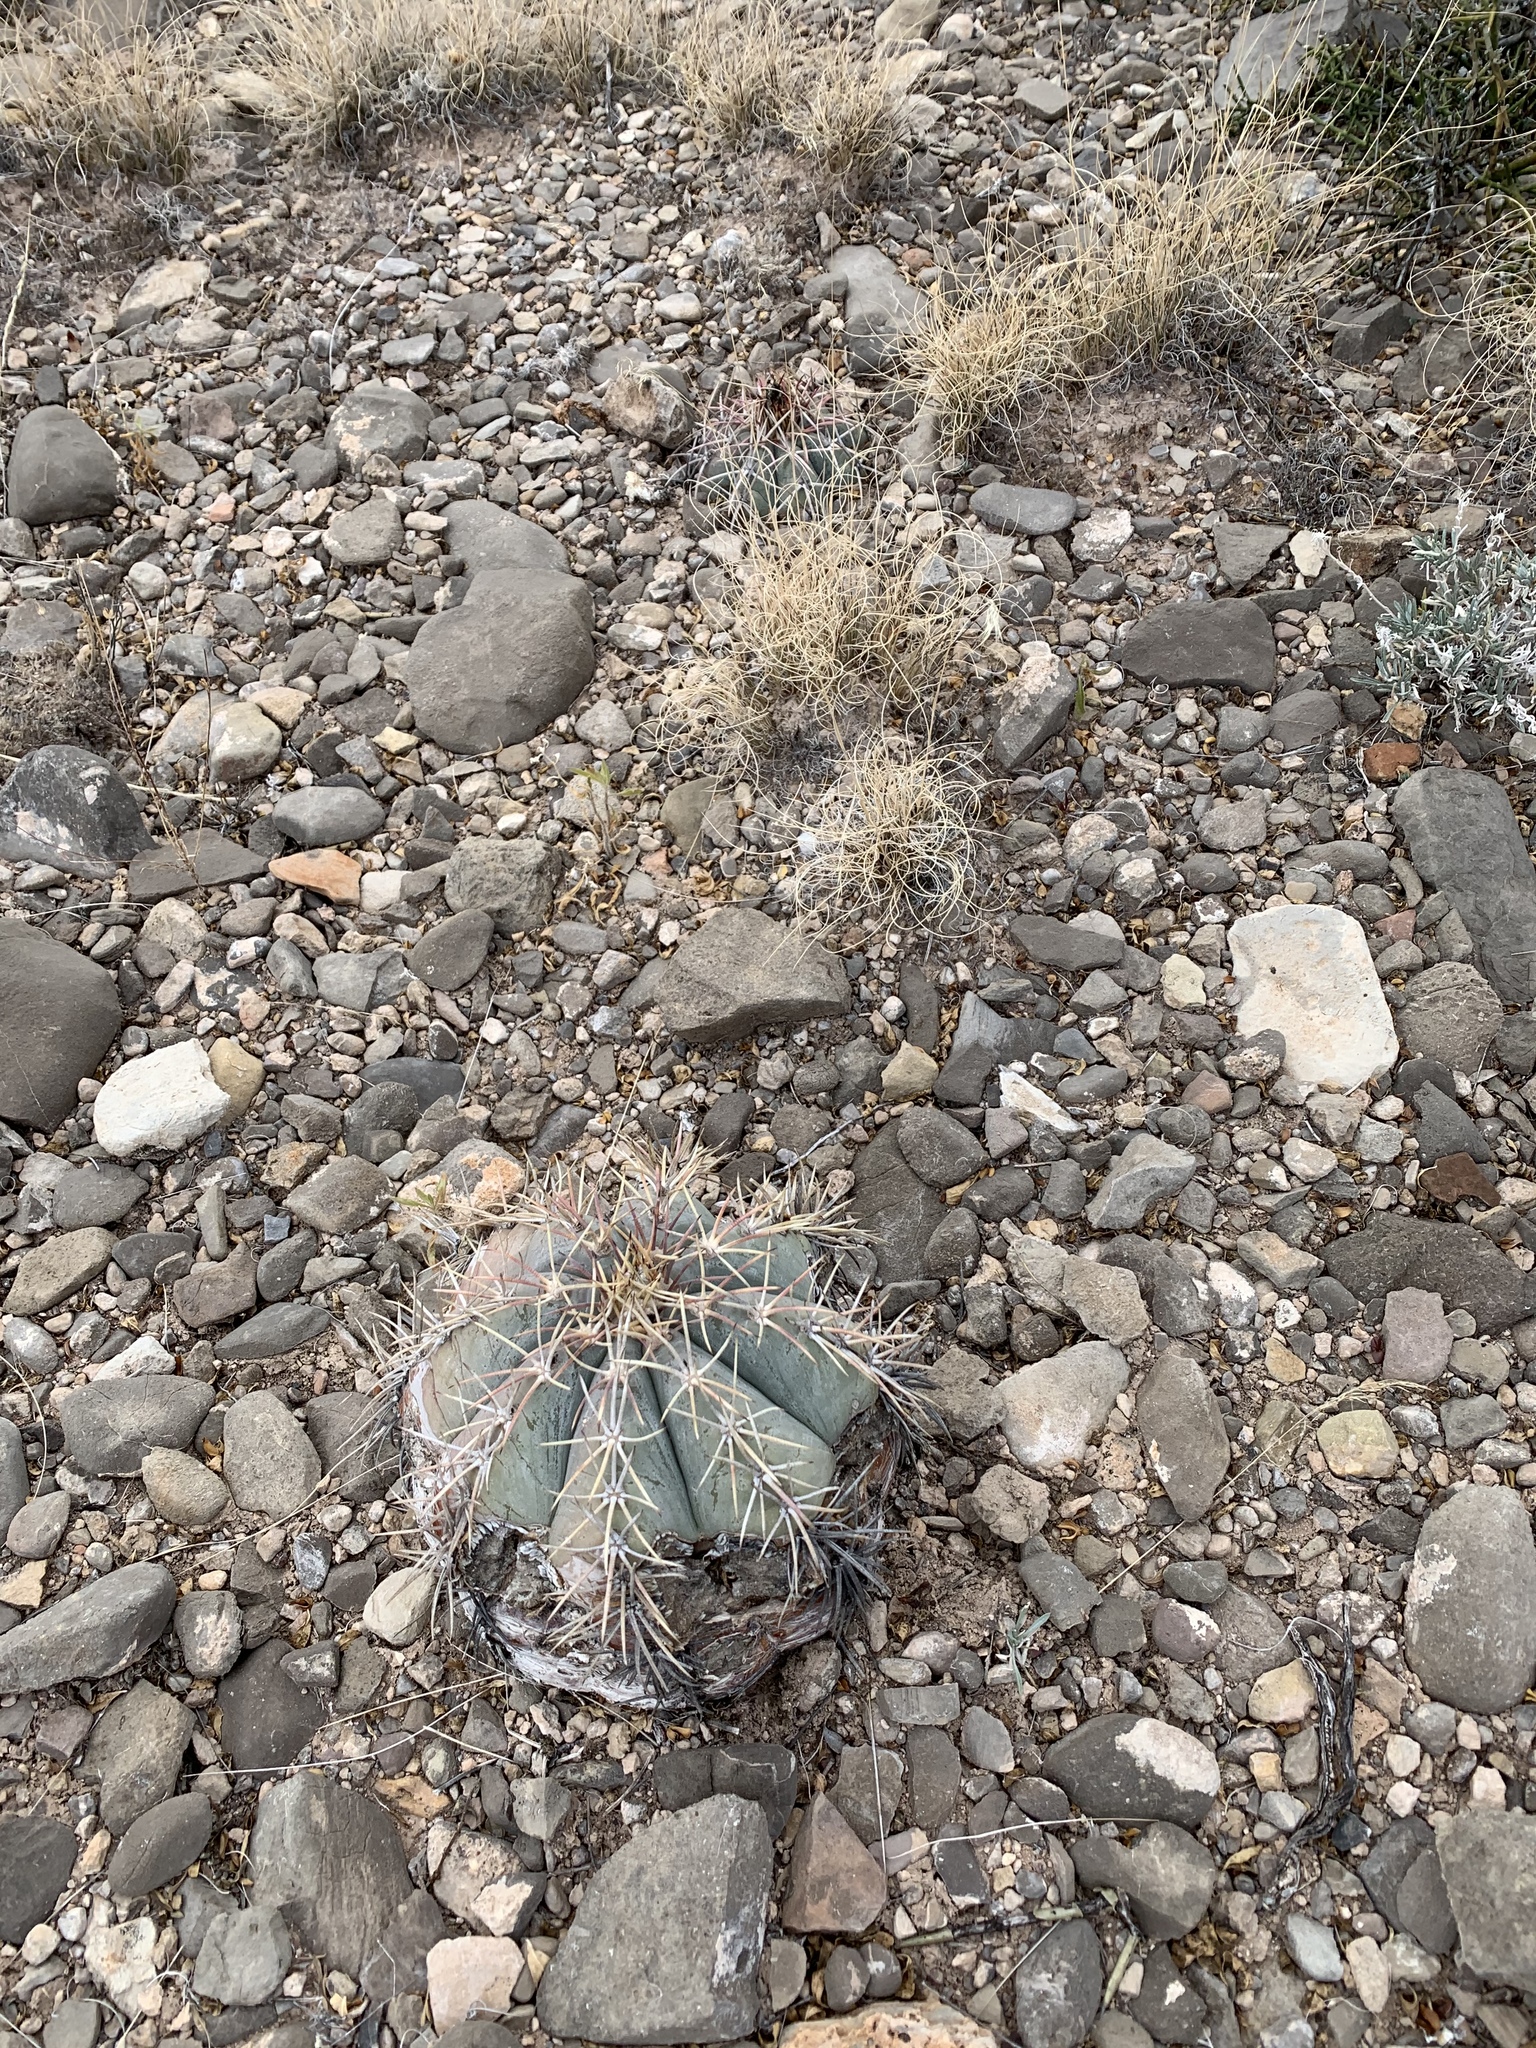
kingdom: Plantae
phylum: Tracheophyta
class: Magnoliopsida
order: Caryophyllales
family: Cactaceae
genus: Echinocactus
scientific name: Echinocactus horizonthalonius
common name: Devilshead
